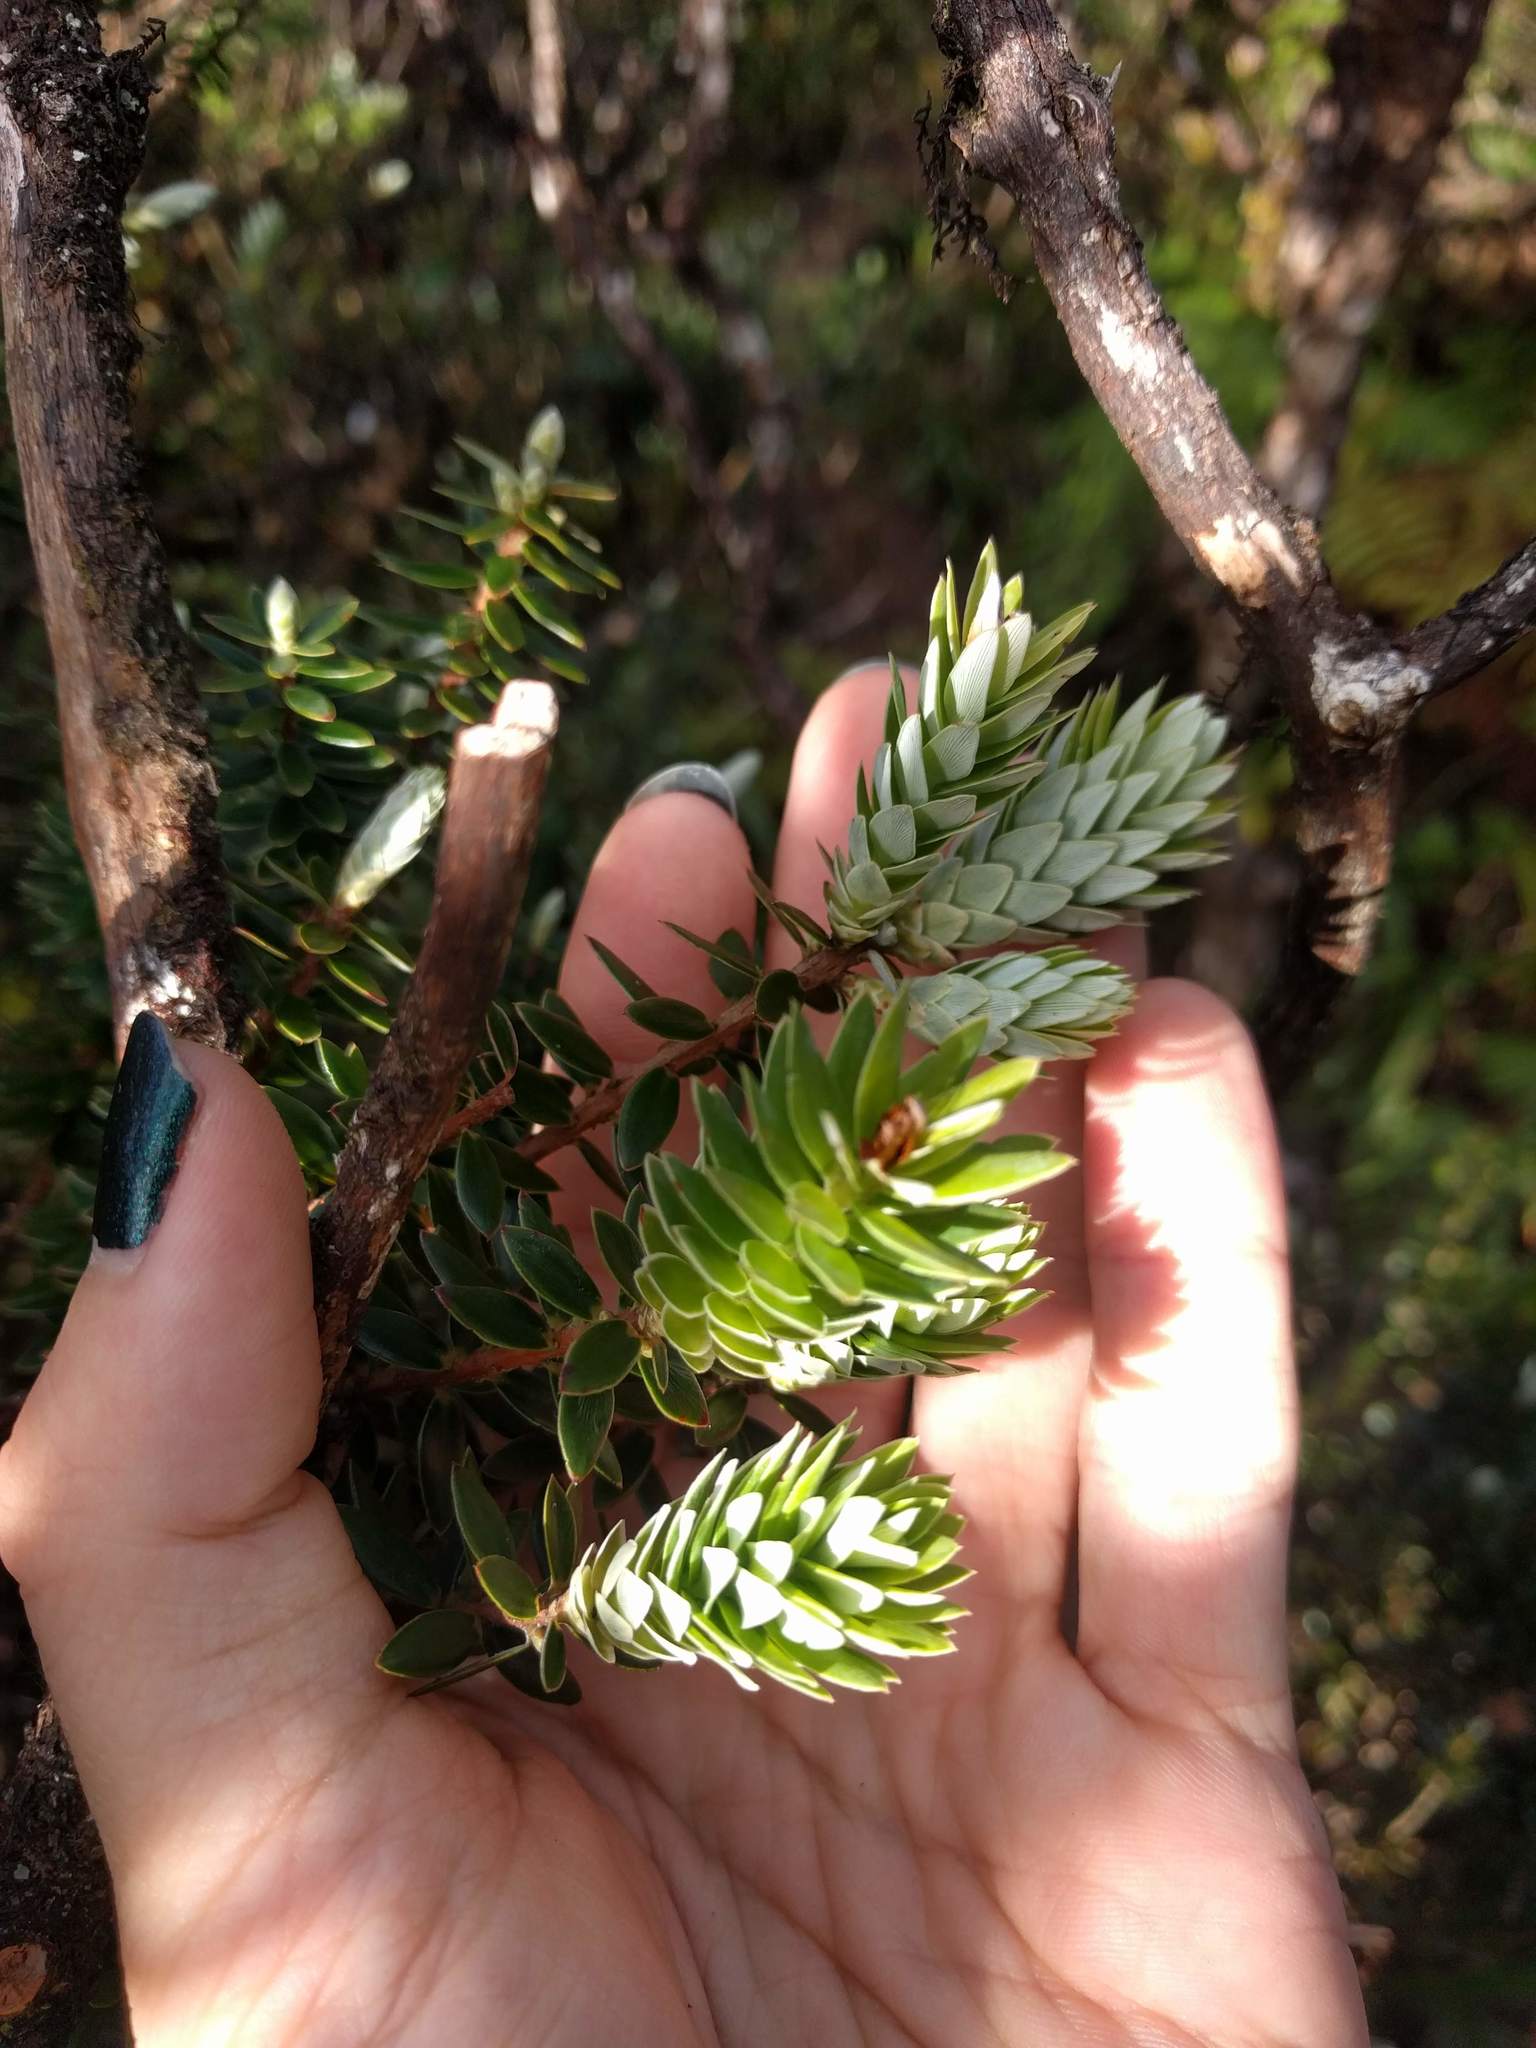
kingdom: Plantae
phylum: Tracheophyta
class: Magnoliopsida
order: Ericales
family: Ericaceae
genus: Leptecophylla
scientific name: Leptecophylla tameiameiae
